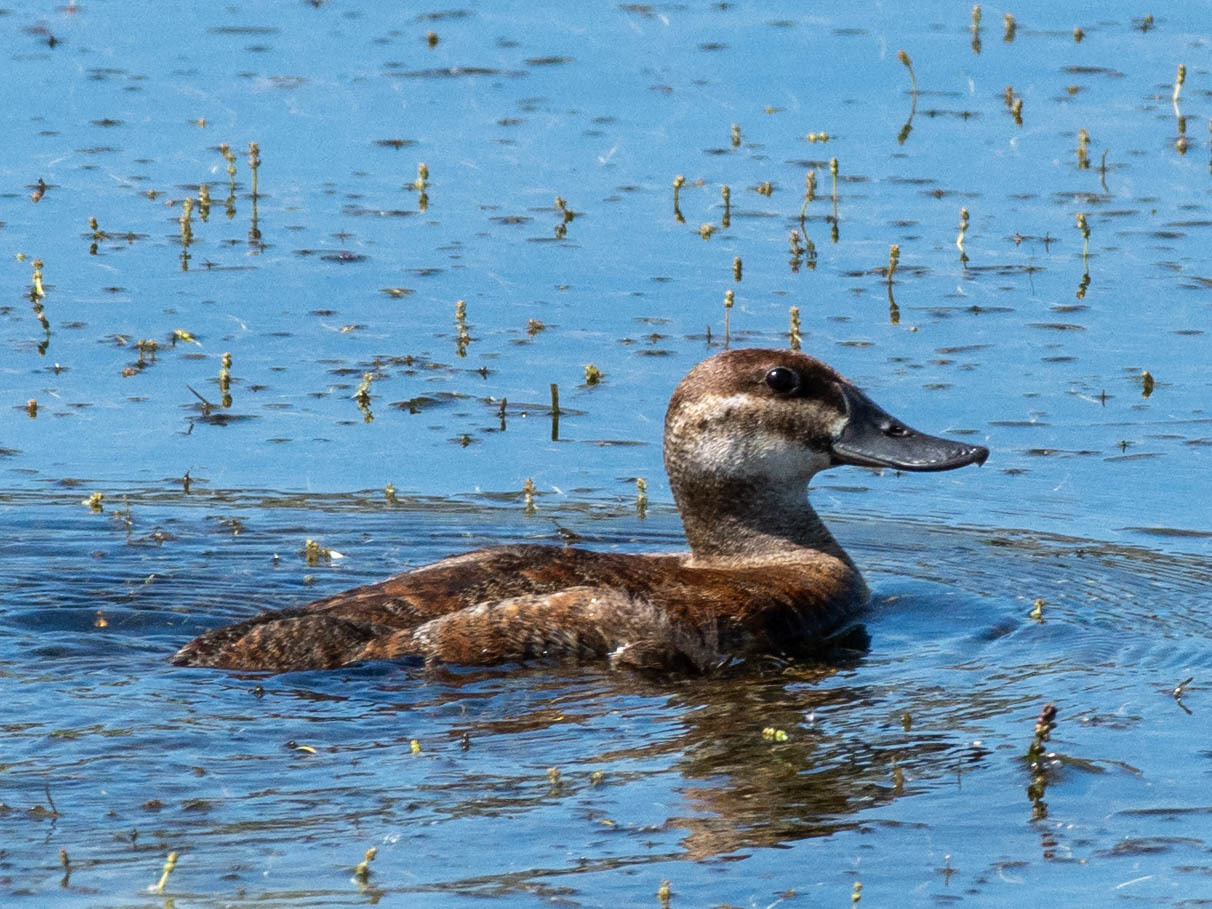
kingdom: Animalia
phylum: Chordata
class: Aves
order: Anseriformes
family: Anatidae
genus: Oxyura
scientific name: Oxyura jamaicensis
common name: Ruddy duck
